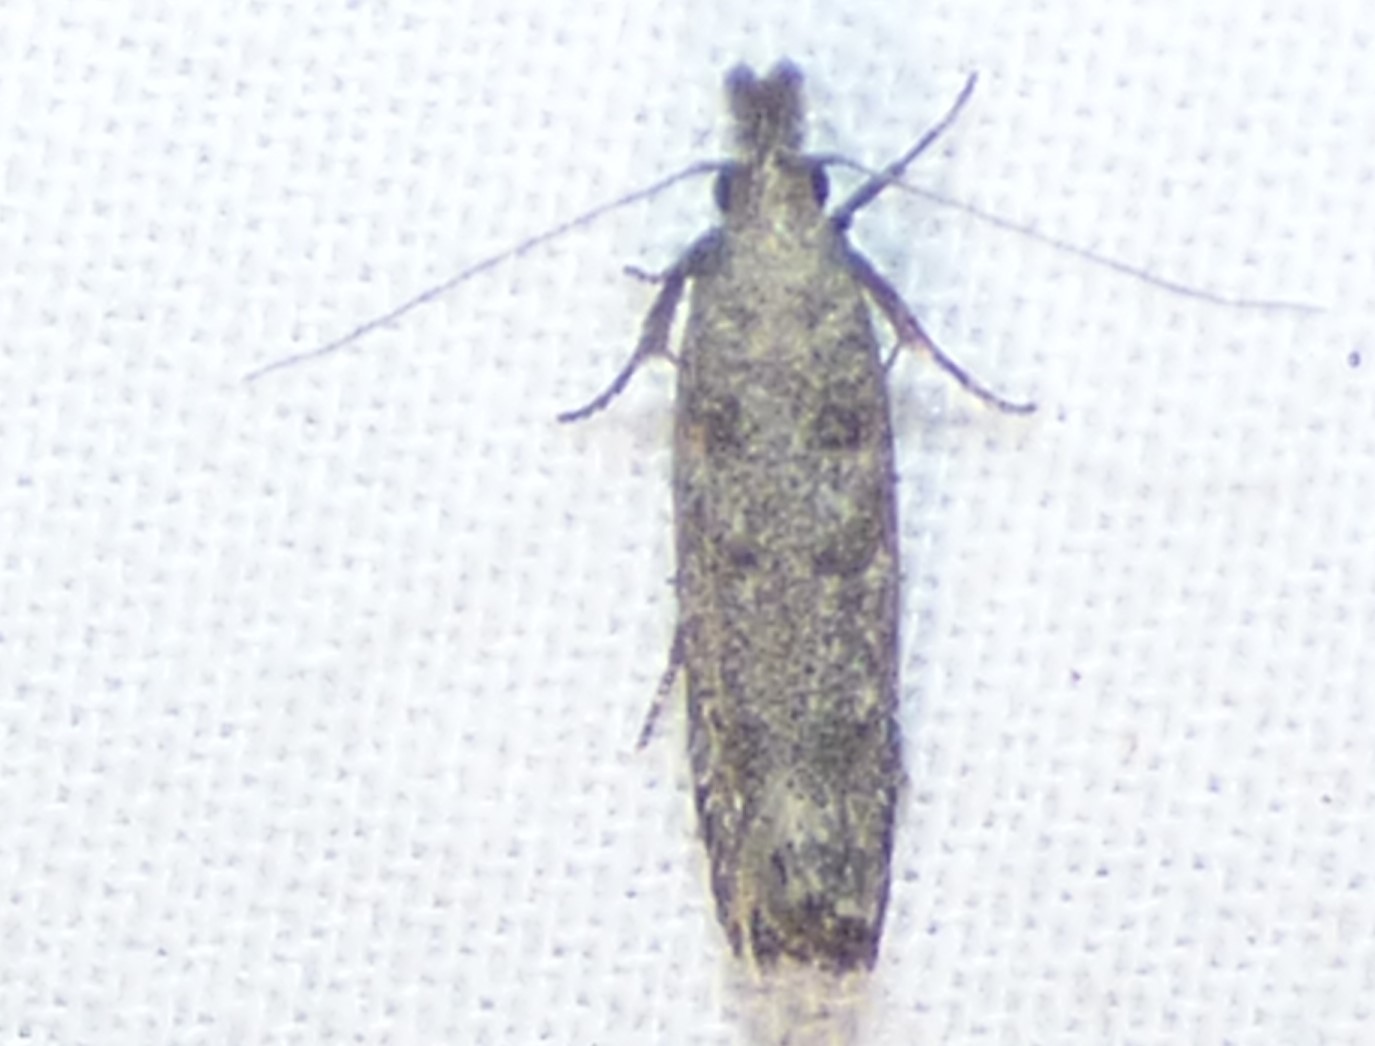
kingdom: Animalia
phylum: Arthropoda
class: Insecta
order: Lepidoptera
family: Gelechiidae
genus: Dichomeris
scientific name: Dichomeris inversella
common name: Inverse dichomeris moth
